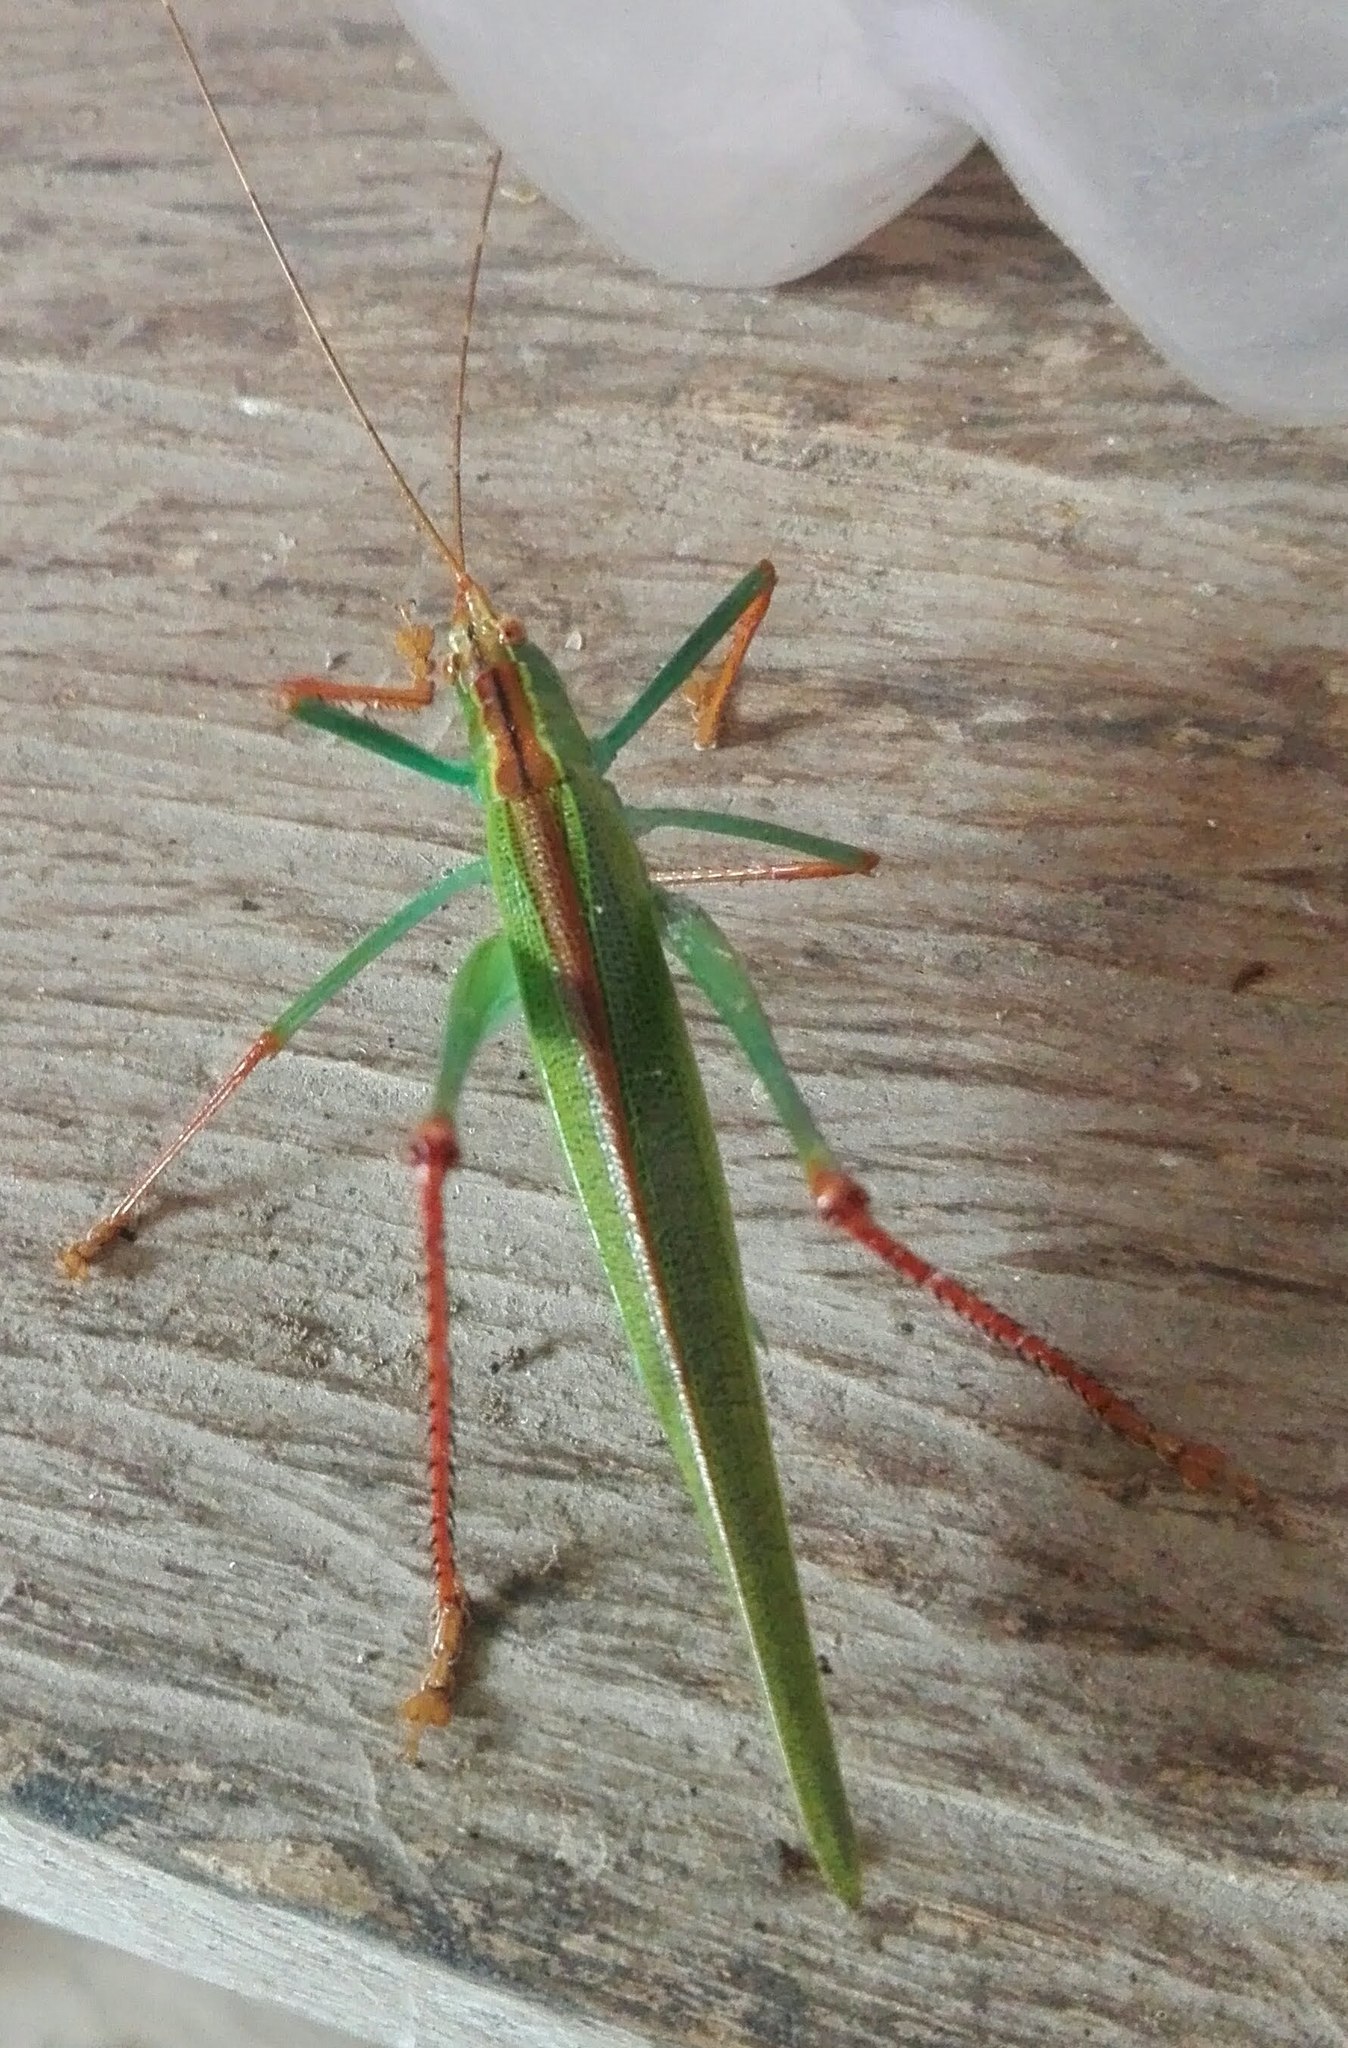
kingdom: Animalia
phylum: Arthropoda
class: Insecta
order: Orthoptera
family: Tettigoniidae
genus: Jimenezia
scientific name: Jimenezia elegans
